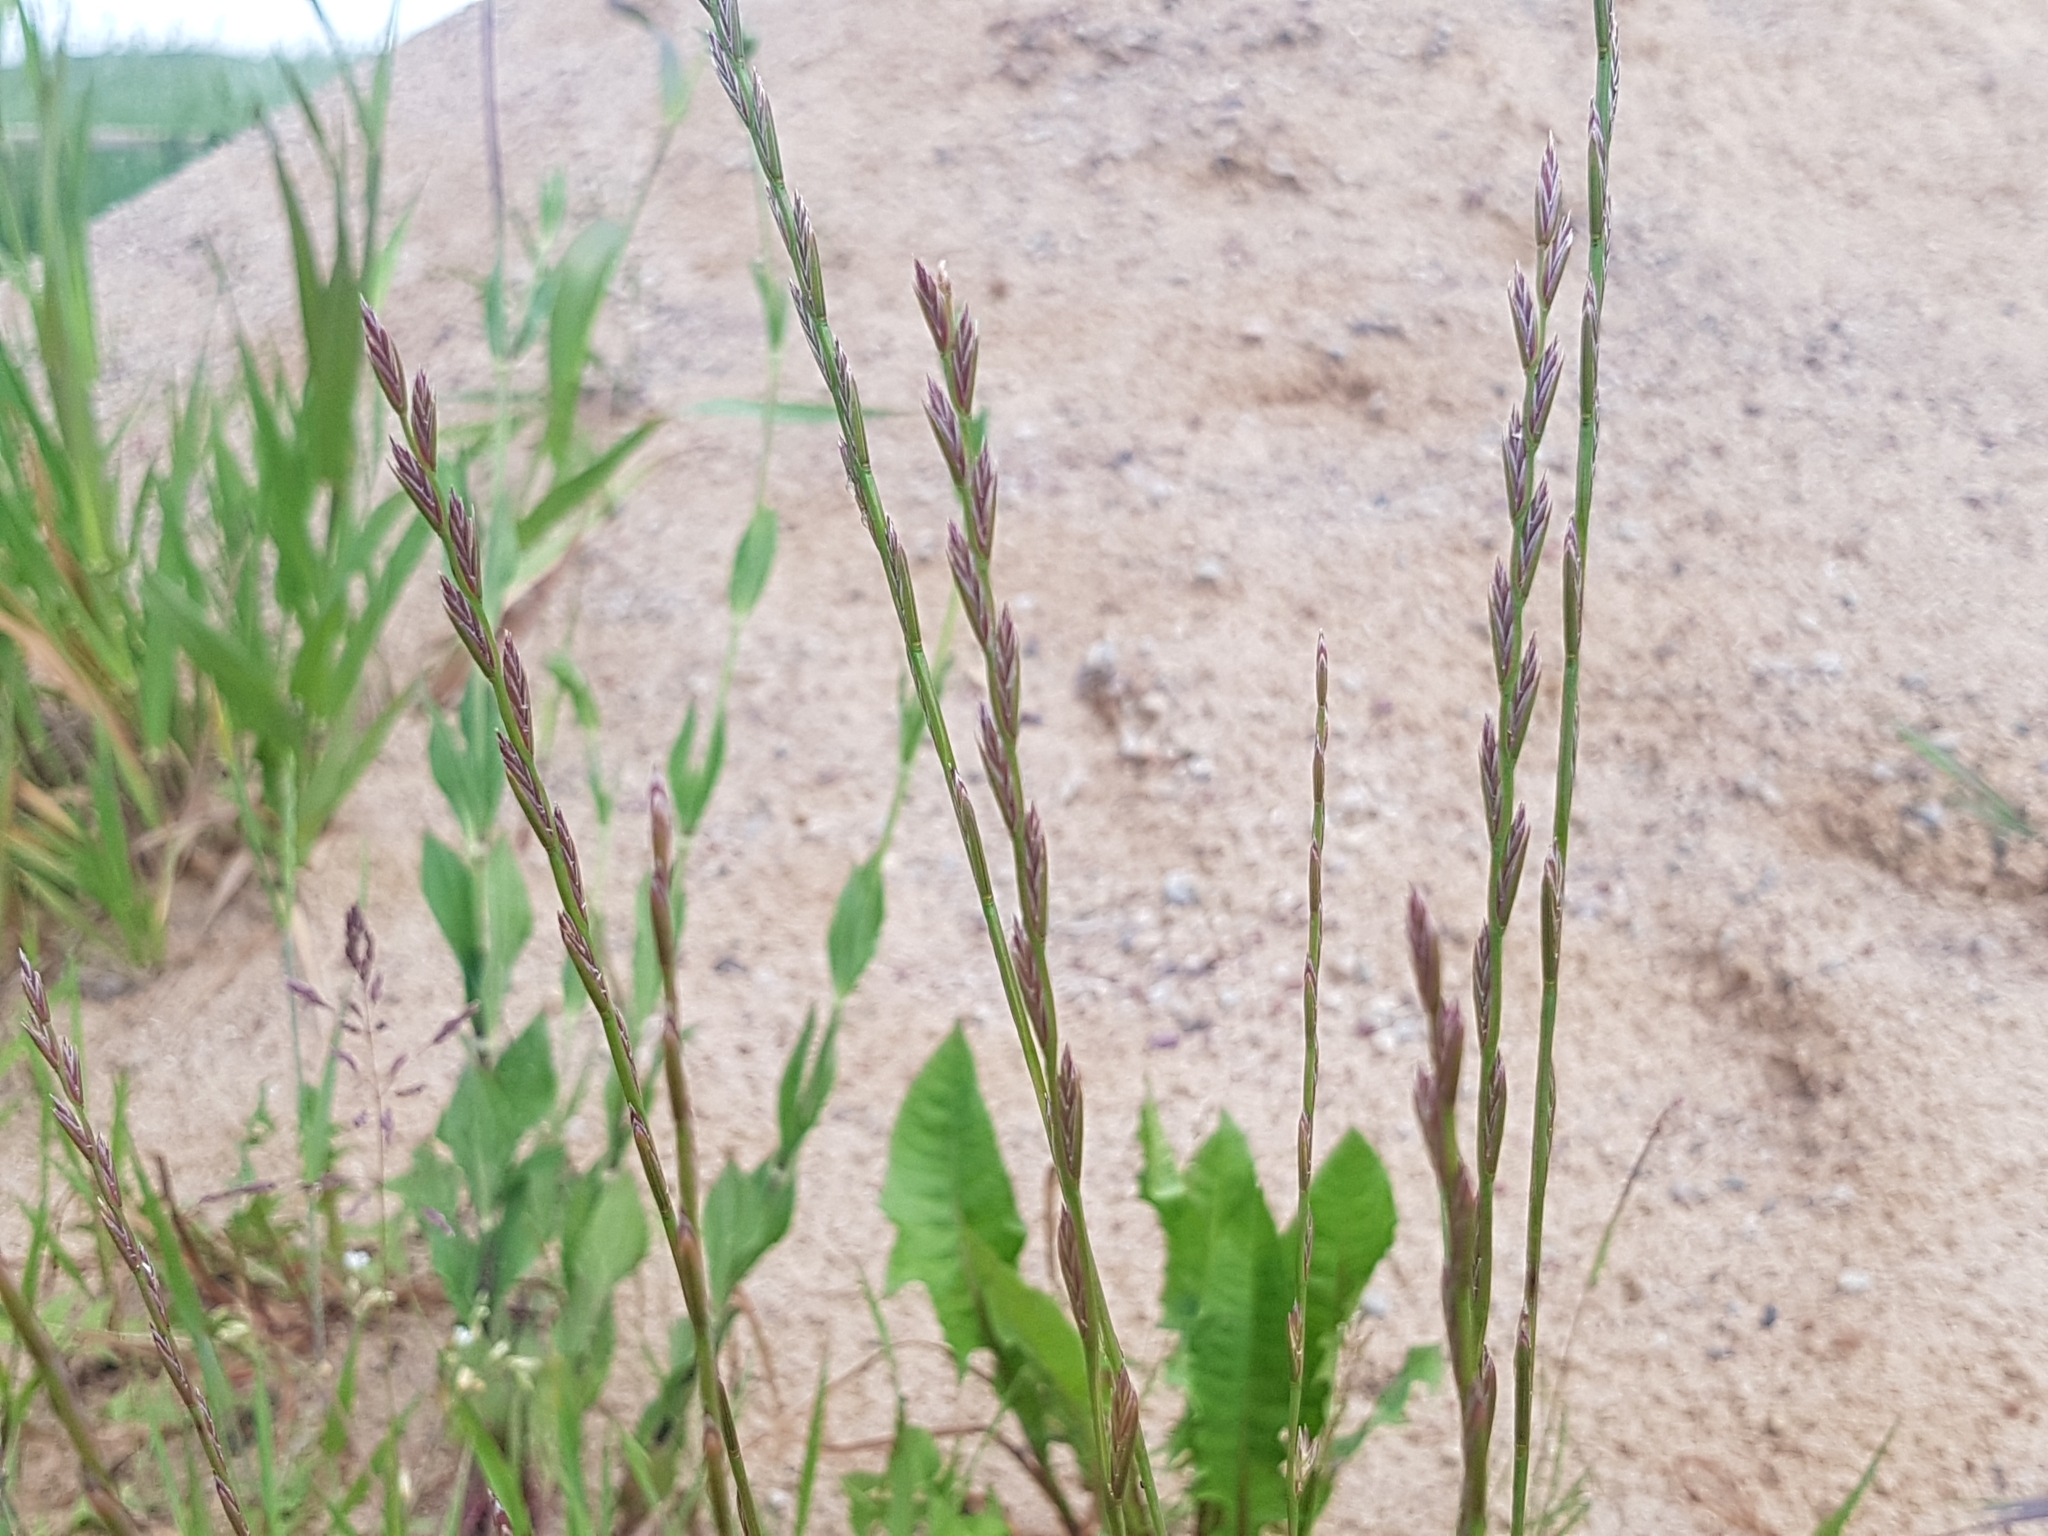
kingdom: Plantae
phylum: Tracheophyta
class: Liliopsida
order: Poales
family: Poaceae
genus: Lolium
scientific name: Lolium perenne
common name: Perennial ryegrass
